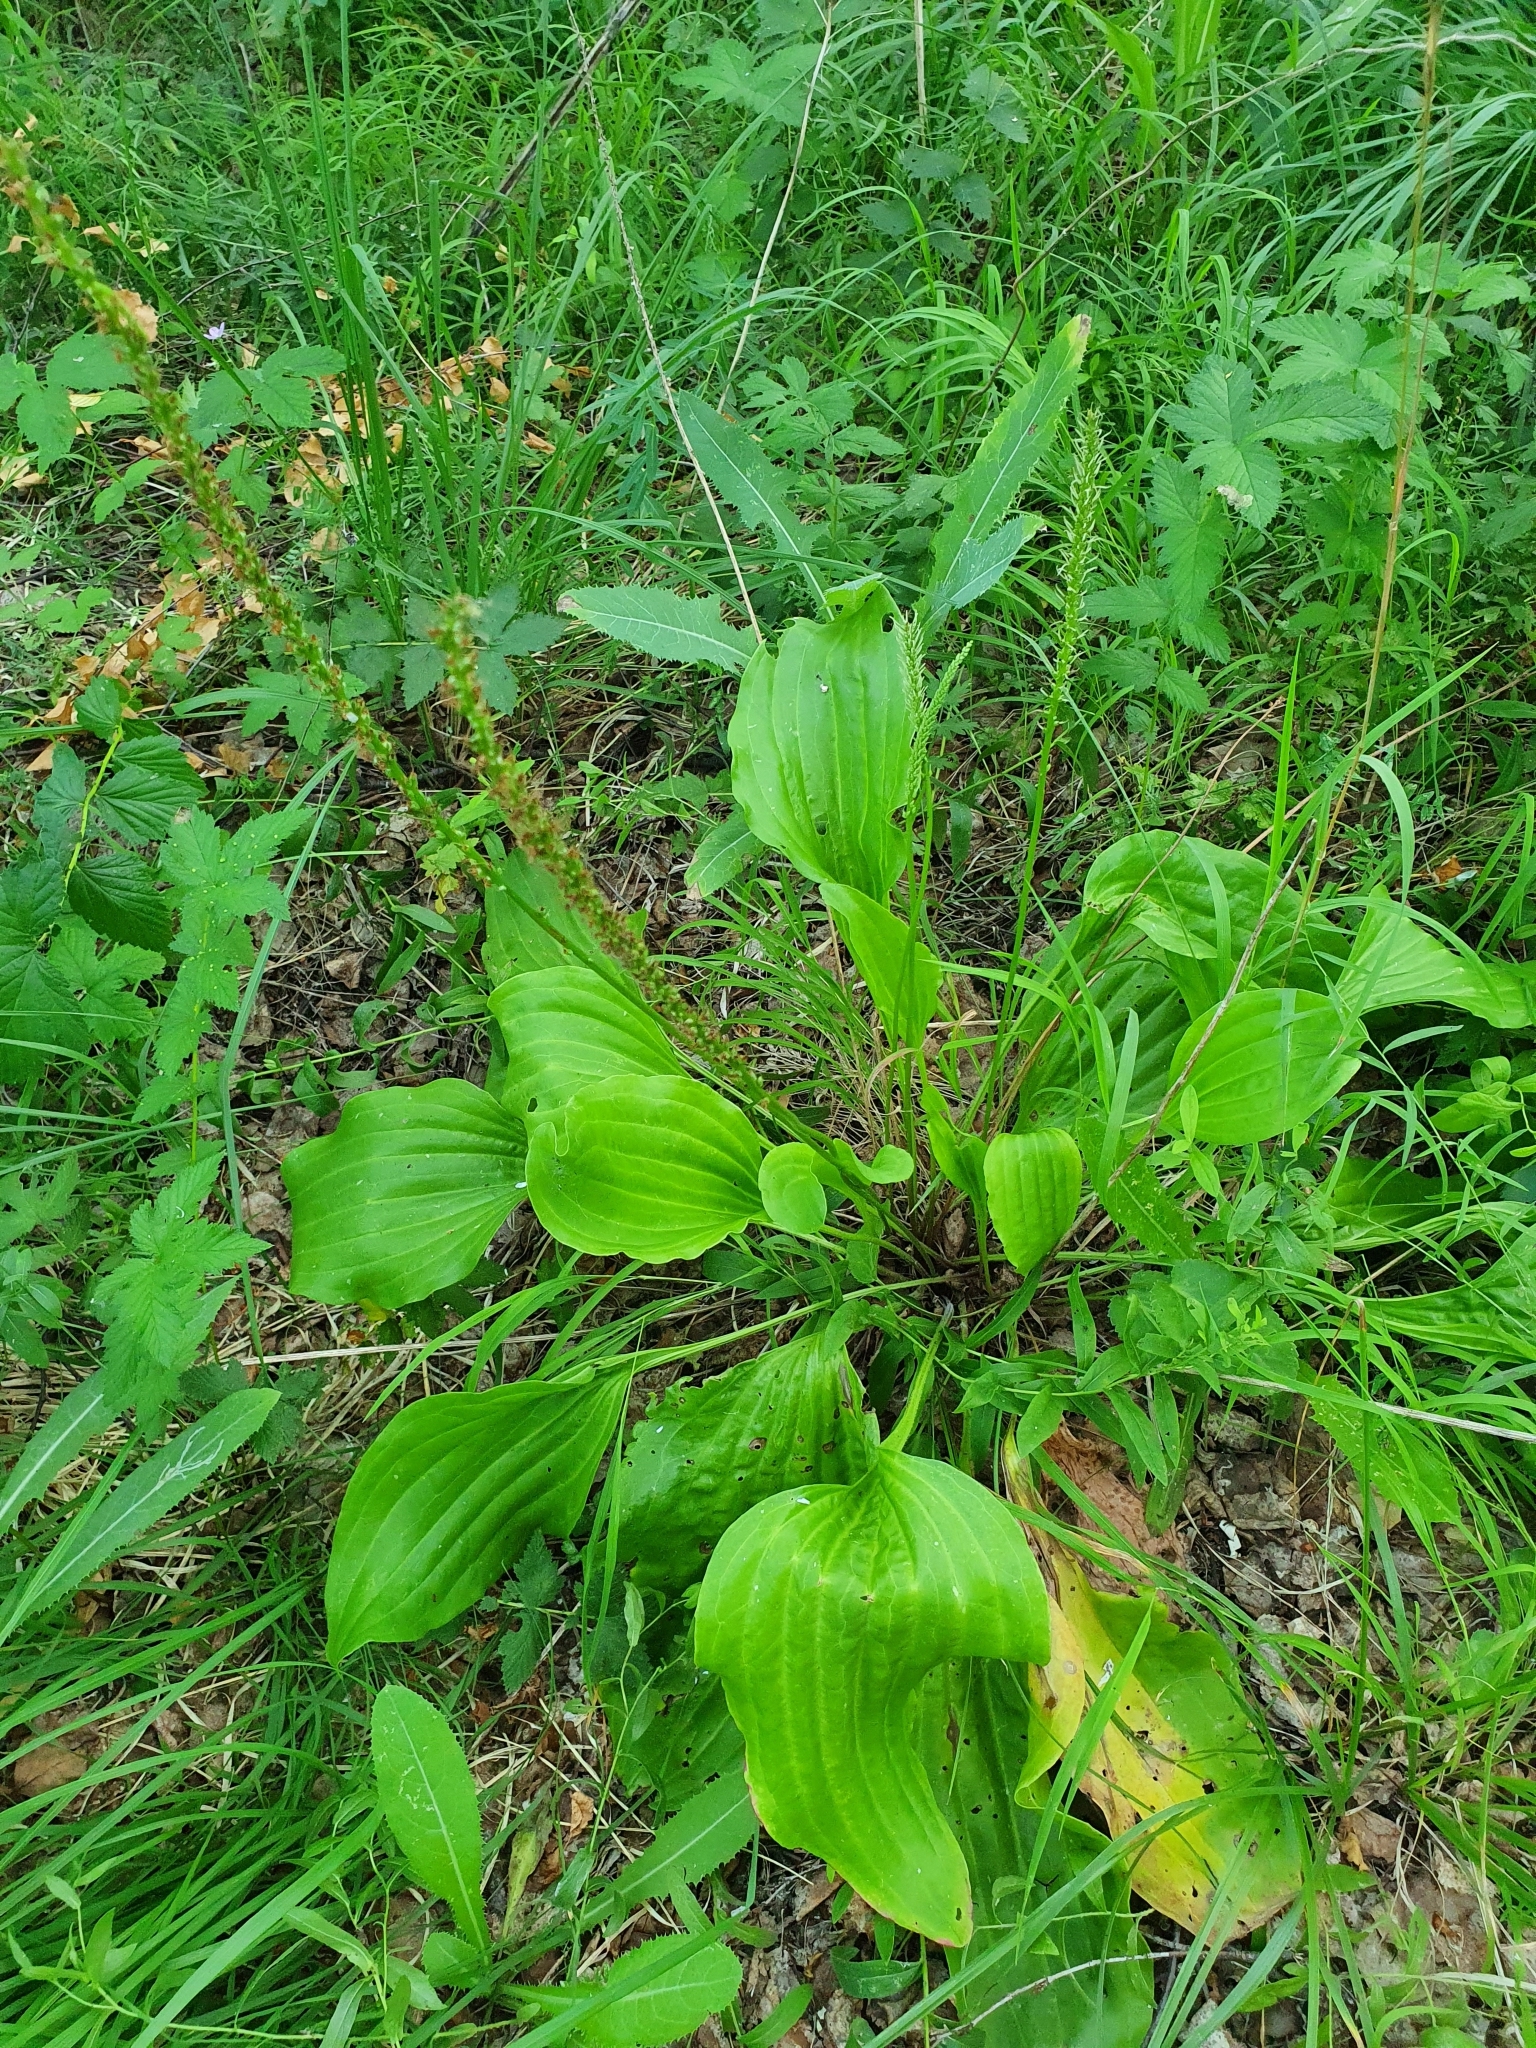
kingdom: Plantae
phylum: Tracheophyta
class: Magnoliopsida
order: Lamiales
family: Plantaginaceae
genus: Plantago
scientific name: Plantago cornuti
